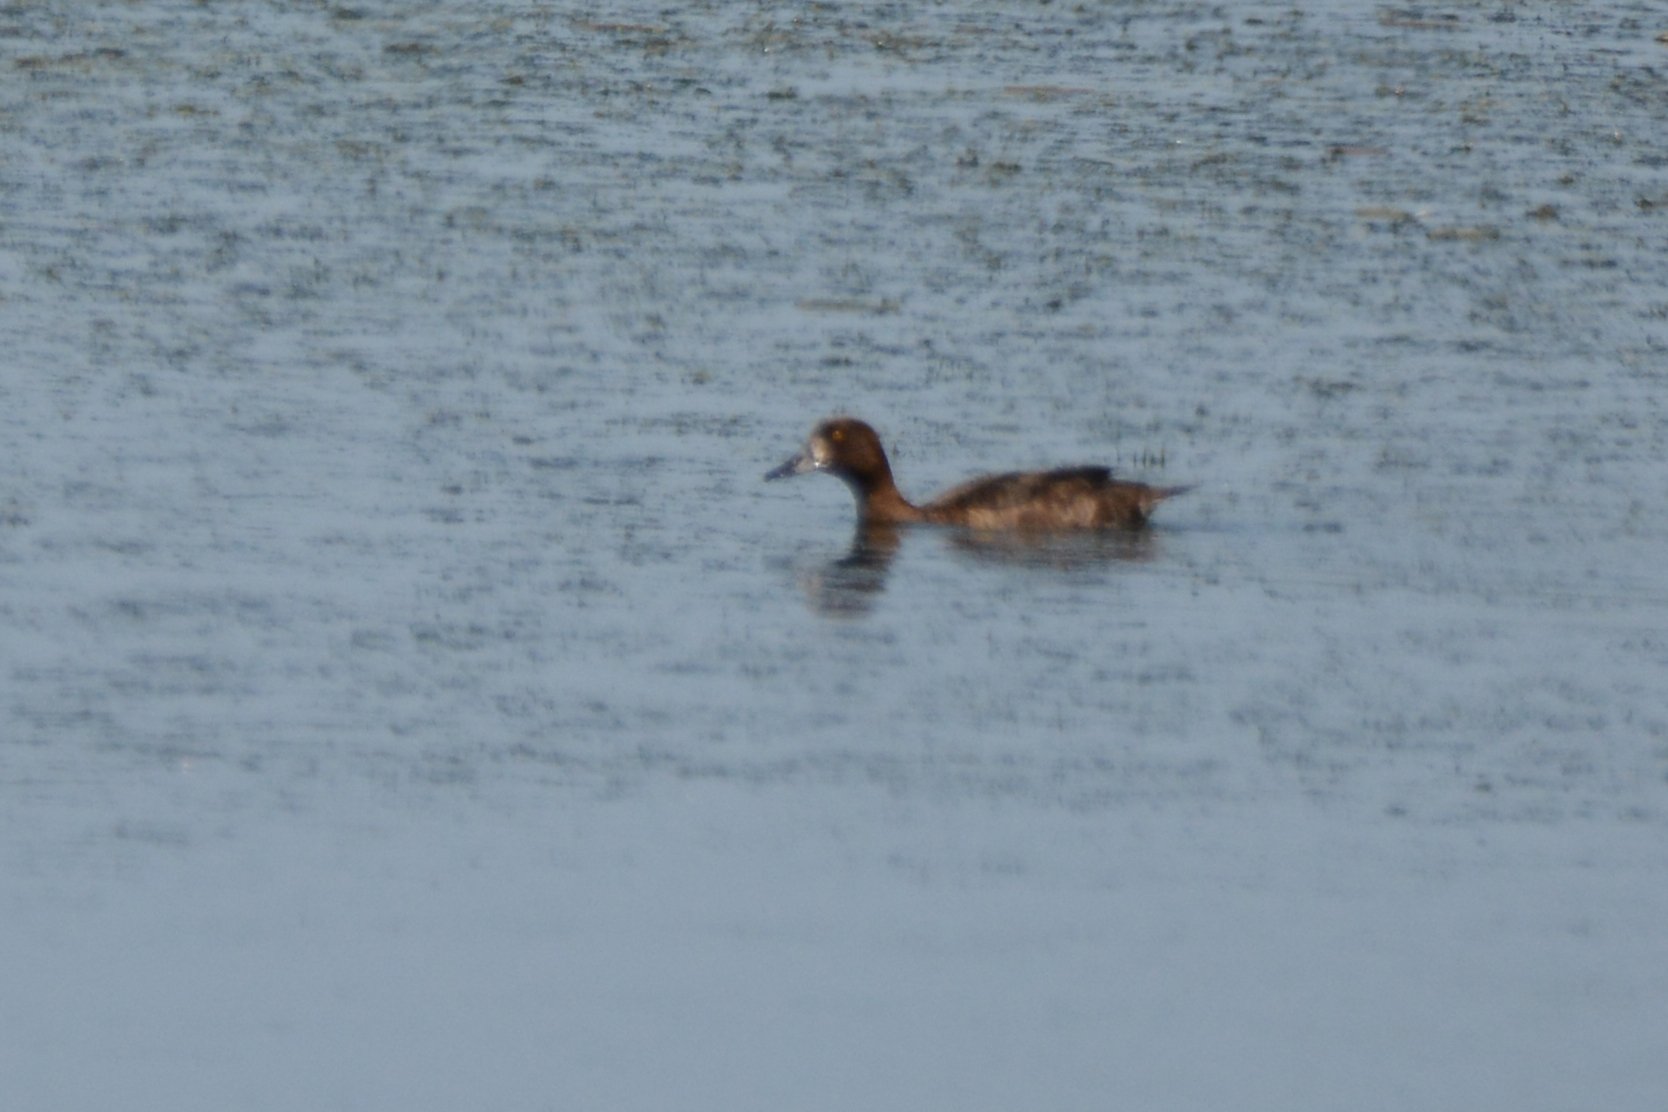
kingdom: Animalia
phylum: Chordata
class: Aves
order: Anseriformes
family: Anatidae
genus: Aythya
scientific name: Aythya fuligula
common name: Tufted duck
